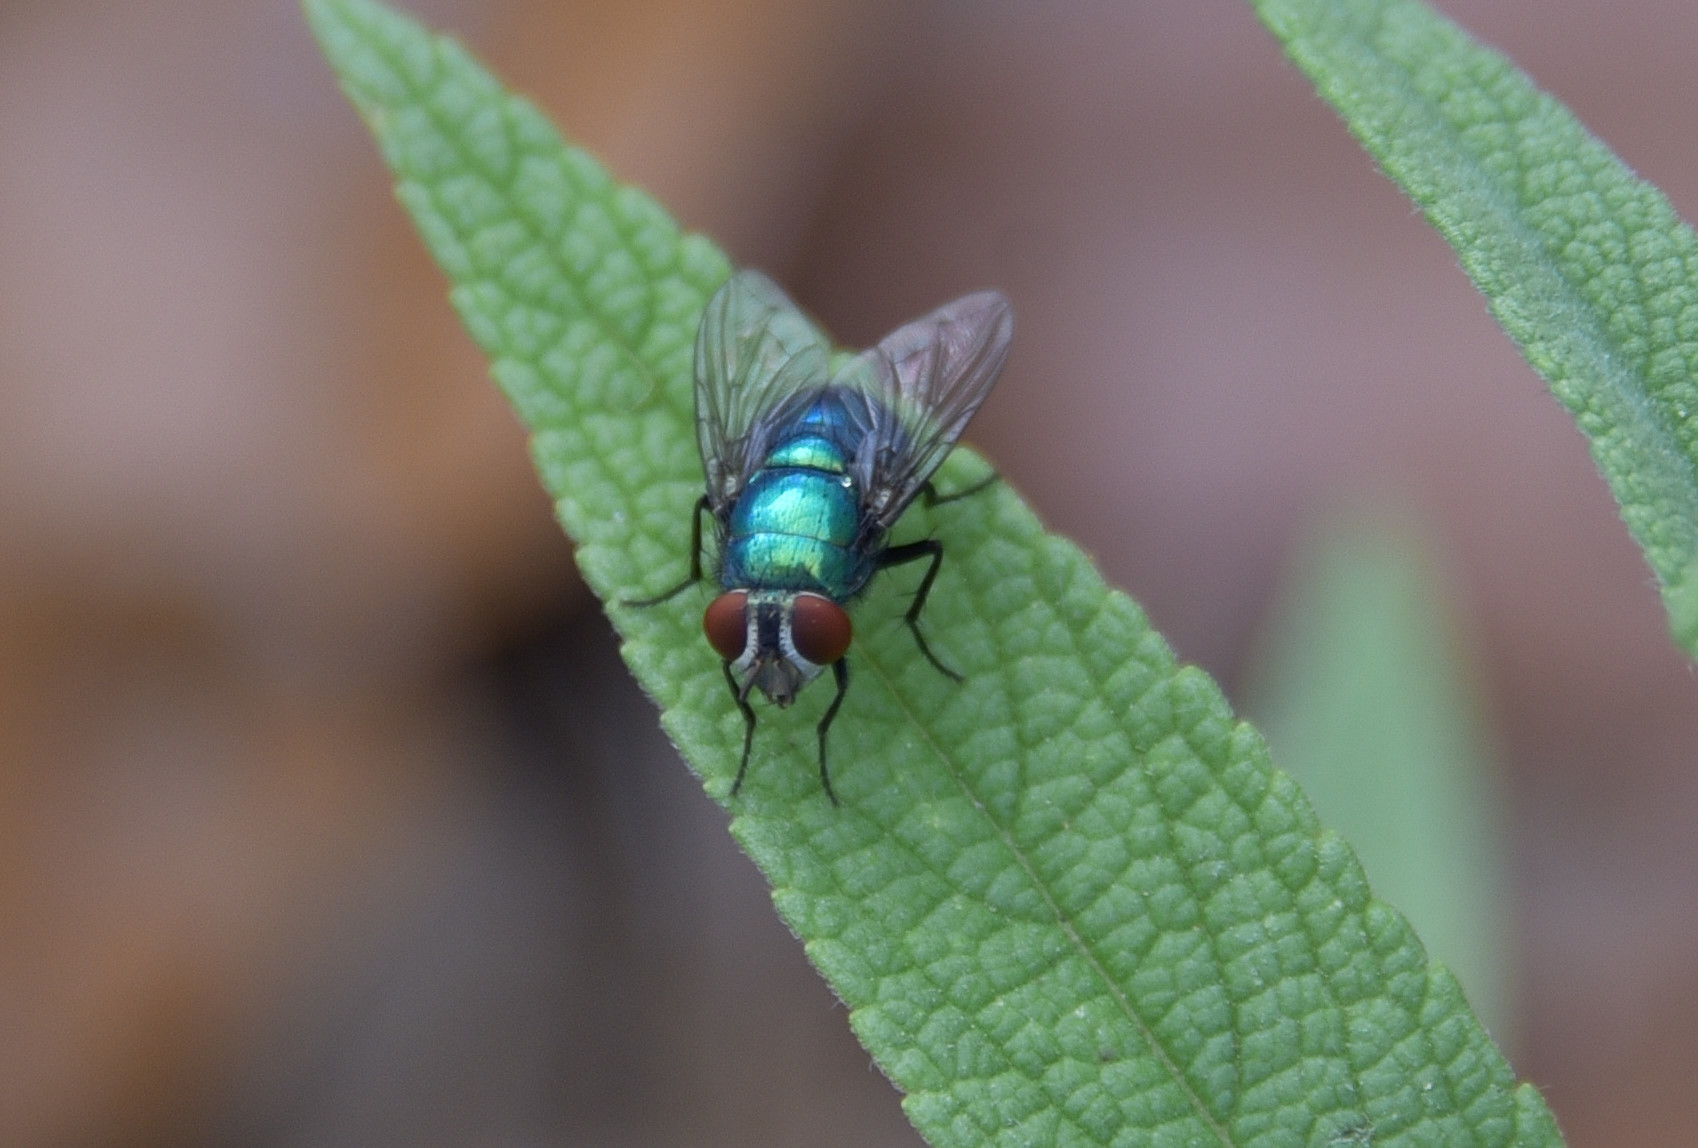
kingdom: Animalia
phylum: Arthropoda
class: Insecta
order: Diptera
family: Calliphoridae
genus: Lucilia
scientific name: Lucilia sericata
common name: Blow fly
